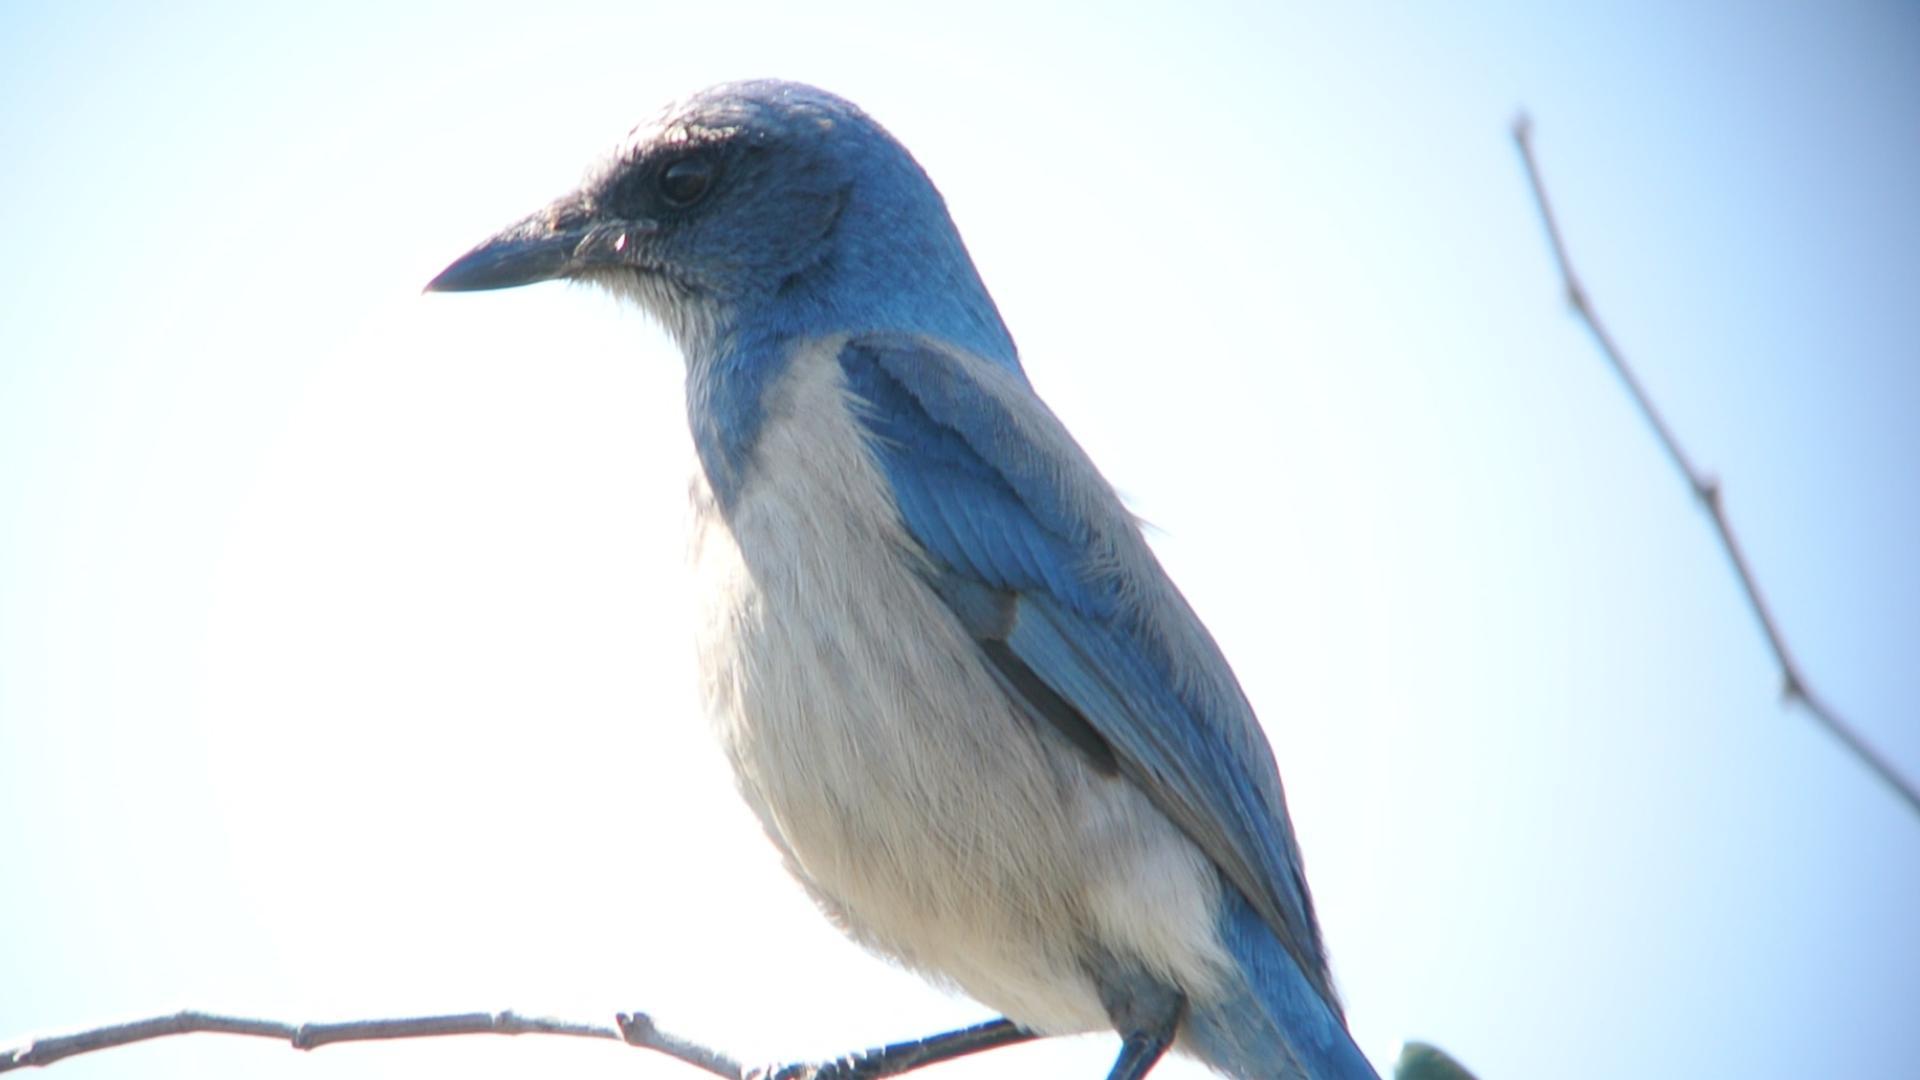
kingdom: Animalia
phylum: Chordata
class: Aves
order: Passeriformes
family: Corvidae
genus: Aphelocoma
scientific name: Aphelocoma coerulescens
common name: Florida scrub jay
